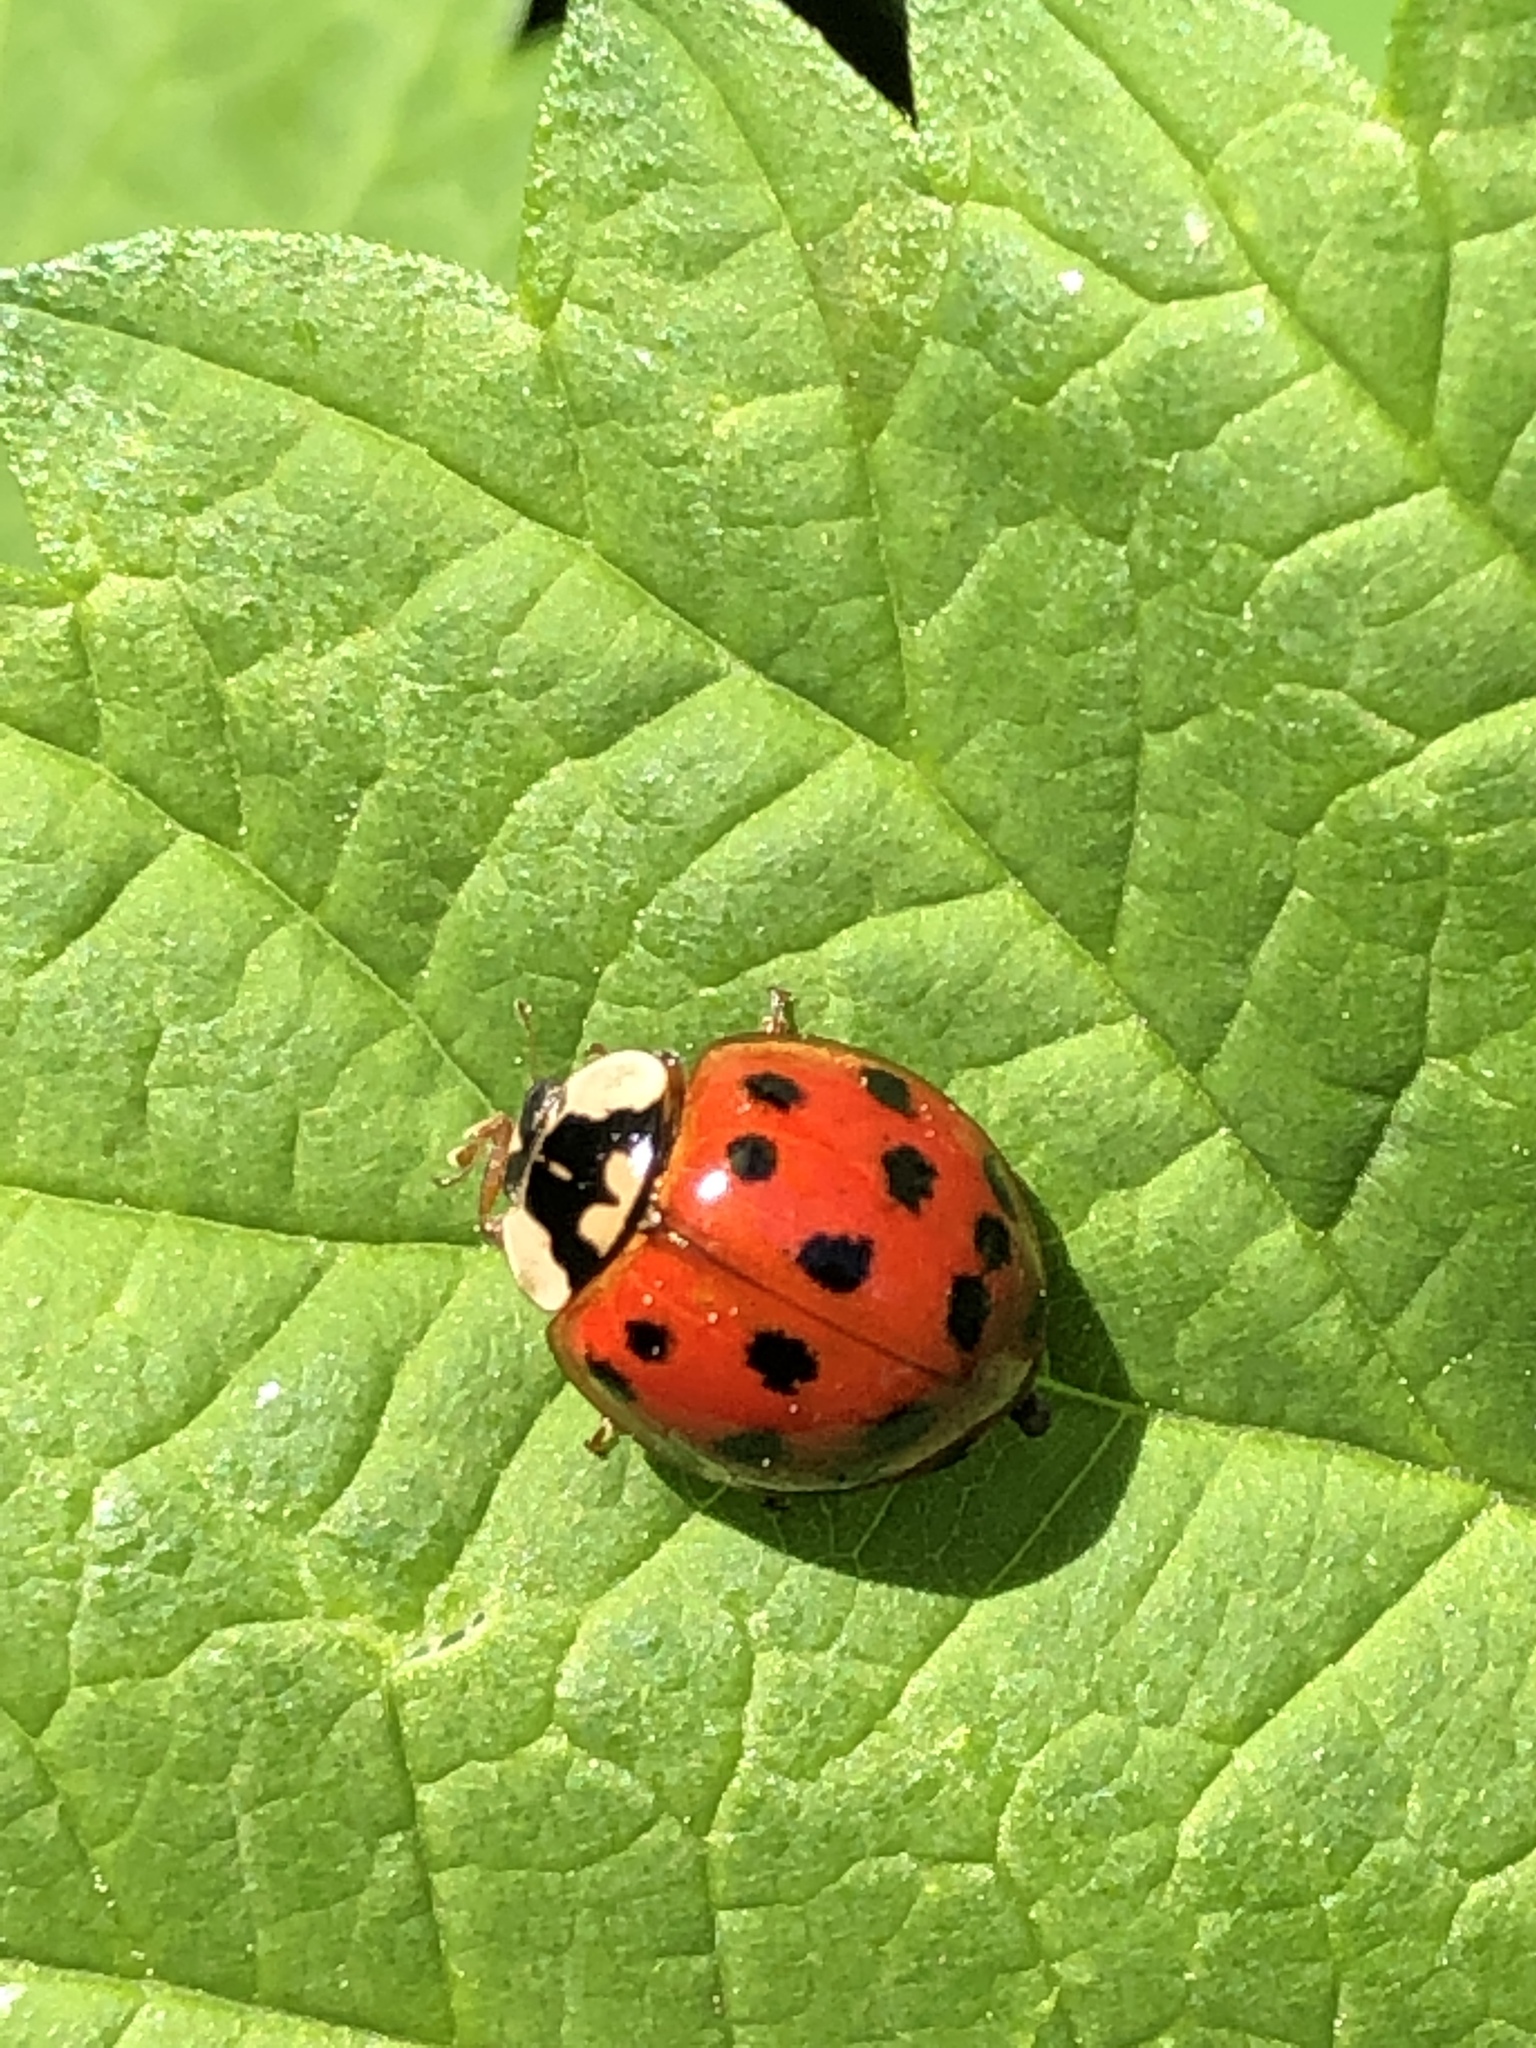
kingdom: Animalia
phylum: Arthropoda
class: Insecta
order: Coleoptera
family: Coccinellidae
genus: Harmonia
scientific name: Harmonia axyridis
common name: Harlequin ladybird
